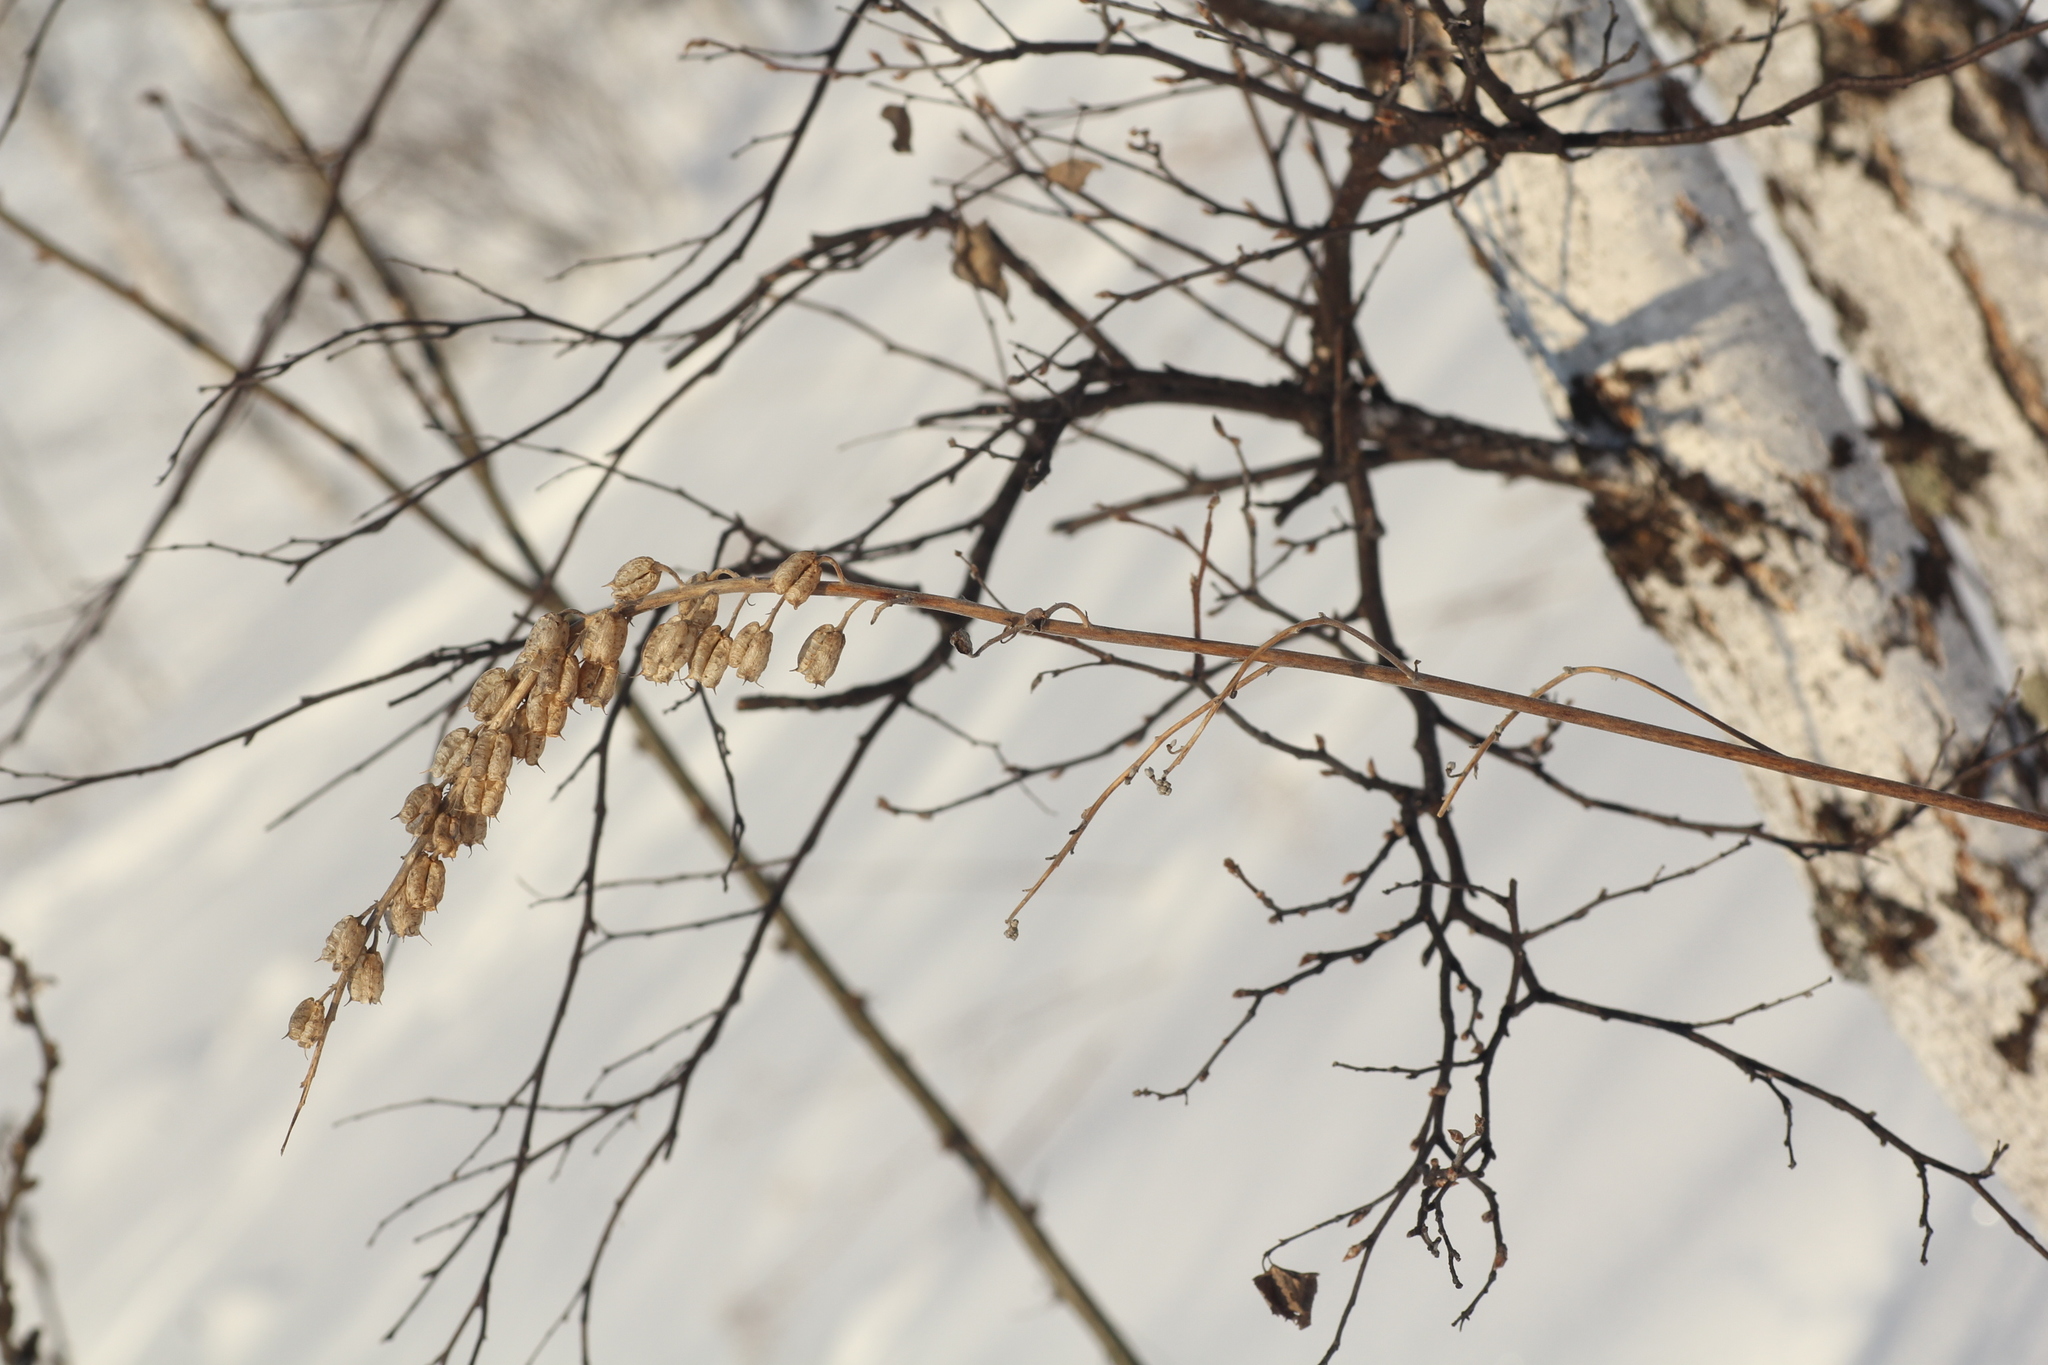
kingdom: Plantae
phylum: Tracheophyta
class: Magnoliopsida
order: Ranunculales
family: Ranunculaceae
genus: Aconitum
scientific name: Aconitum barbatum
